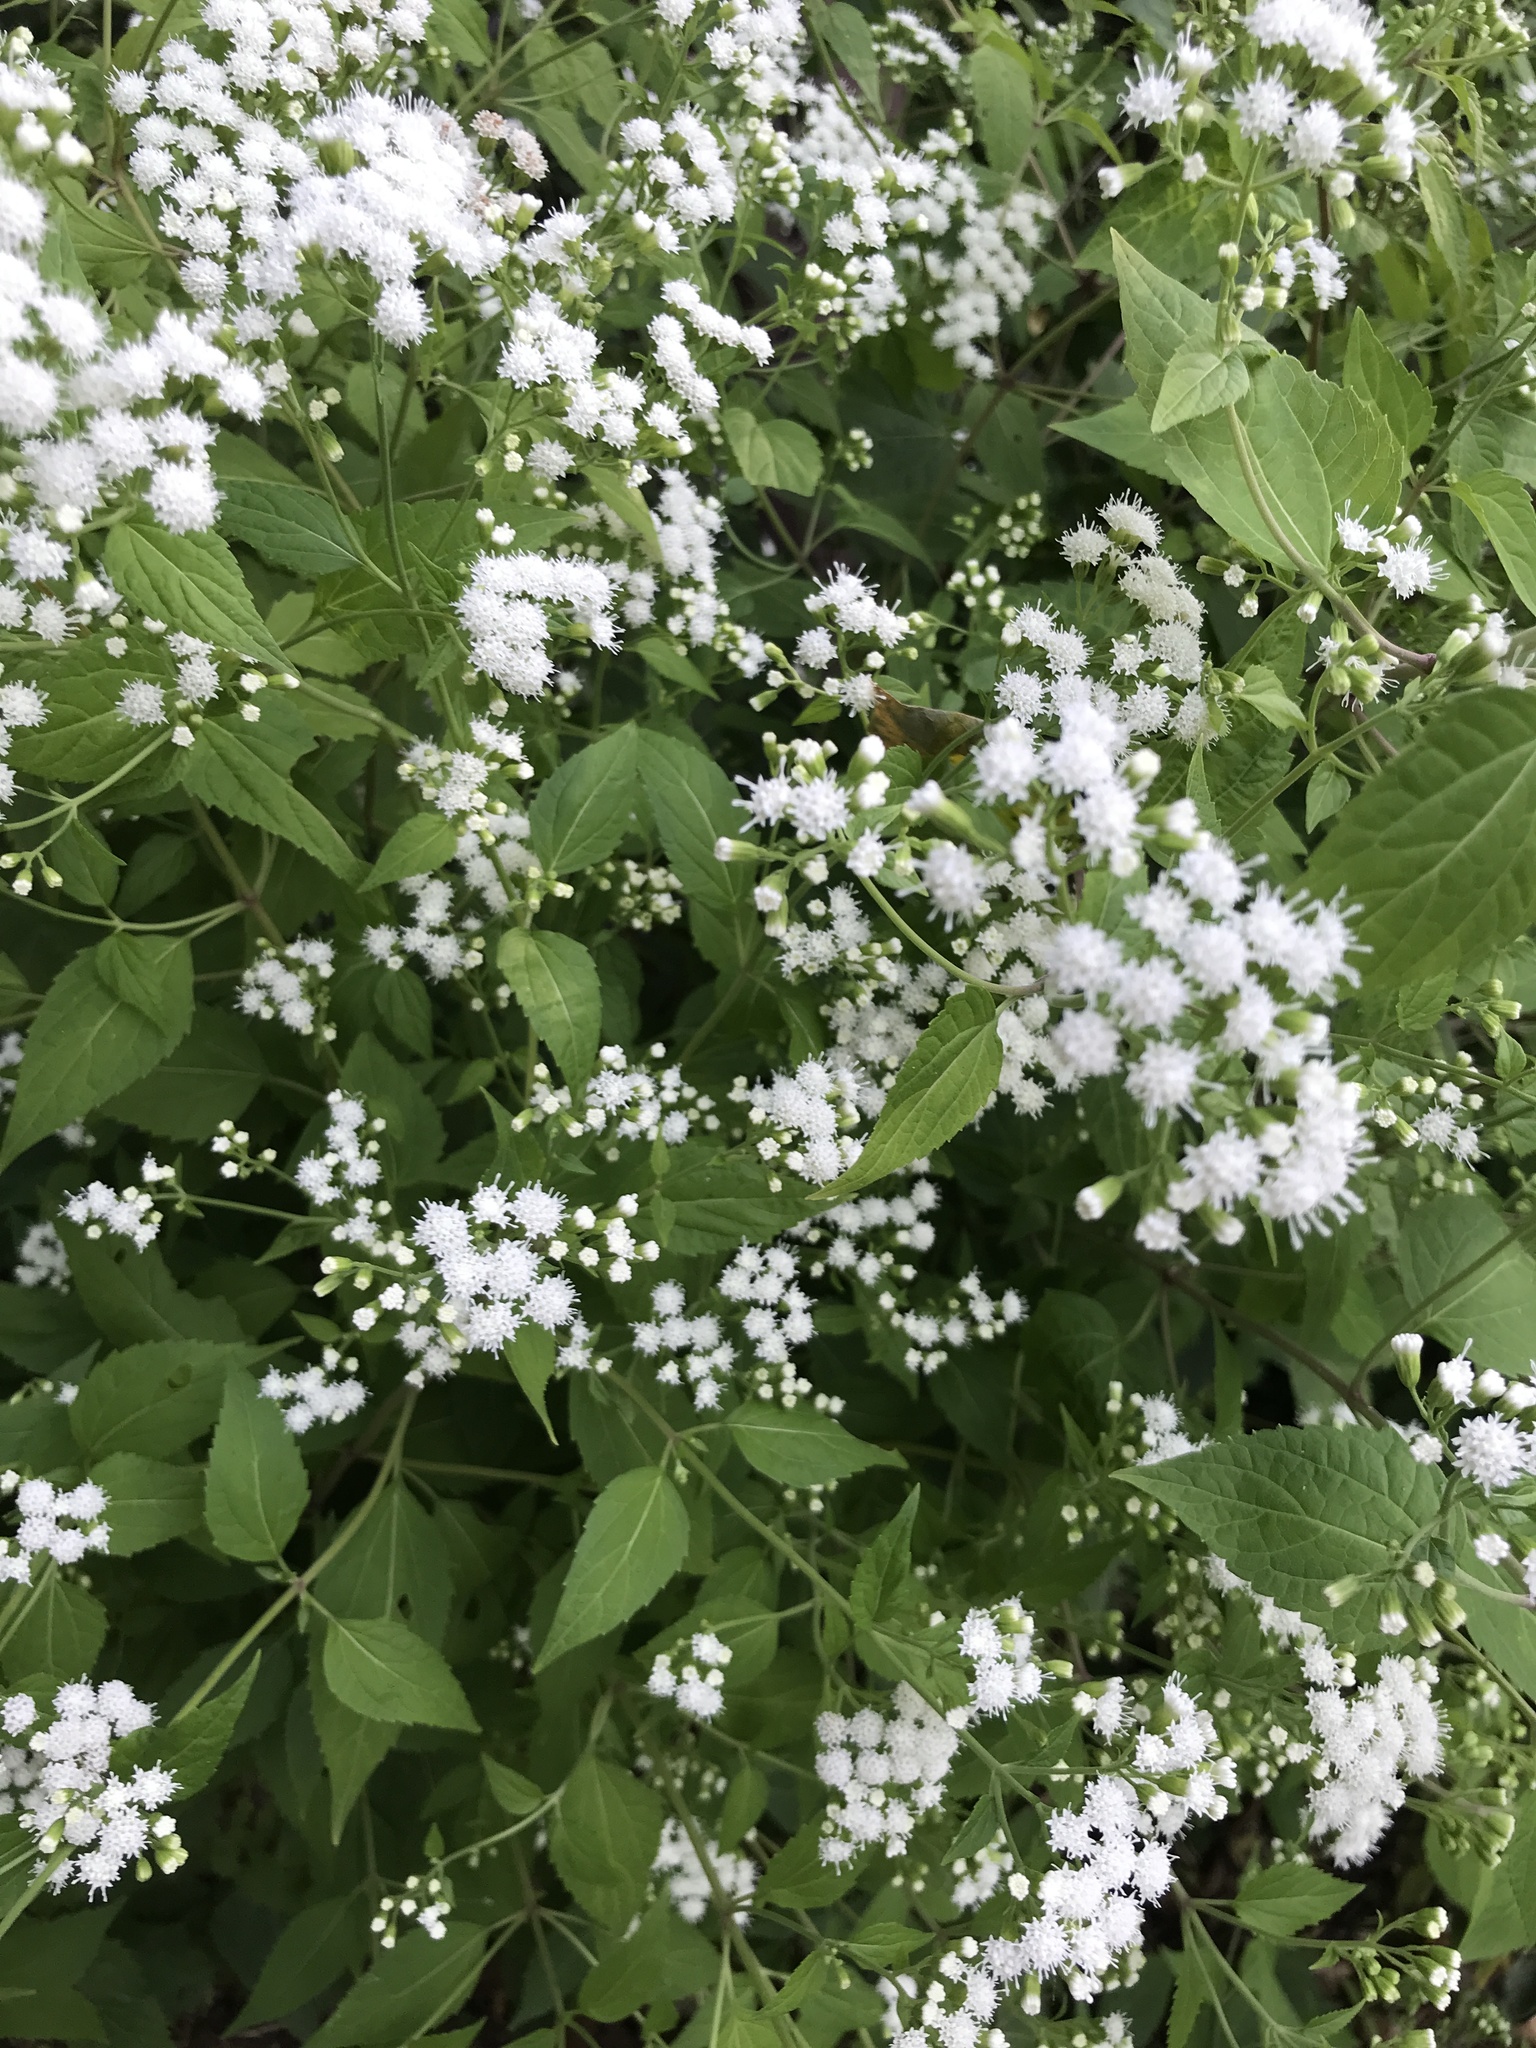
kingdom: Plantae
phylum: Tracheophyta
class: Magnoliopsida
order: Asterales
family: Asteraceae
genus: Ageratina
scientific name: Ageratina altissima
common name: White snakeroot
